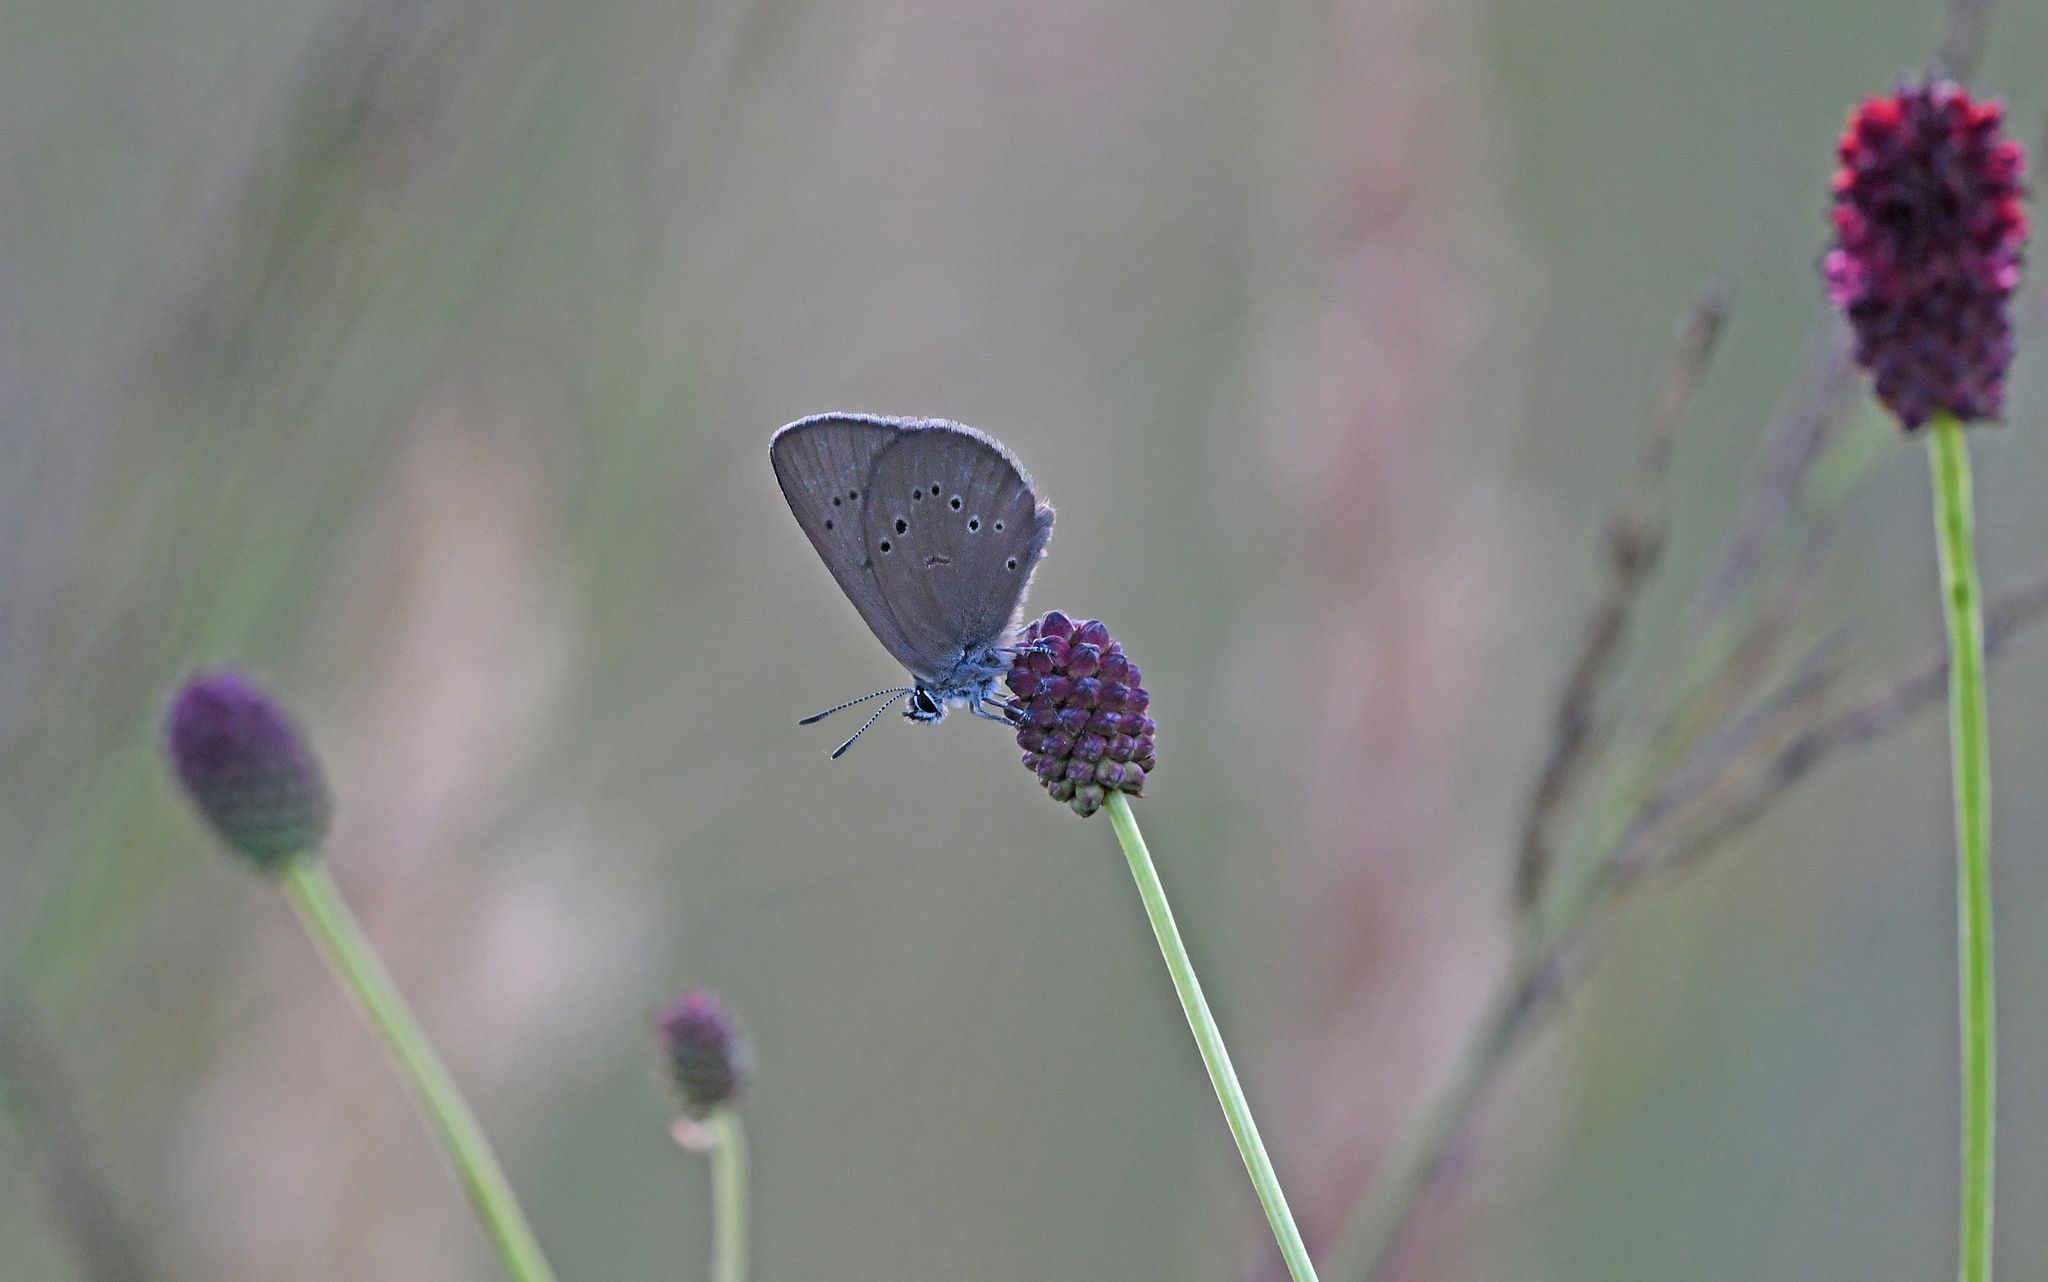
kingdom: Animalia
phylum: Arthropoda
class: Insecta
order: Lepidoptera
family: Lycaenidae
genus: Maculinea
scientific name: Maculinea nausithous
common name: Dusky large blue
